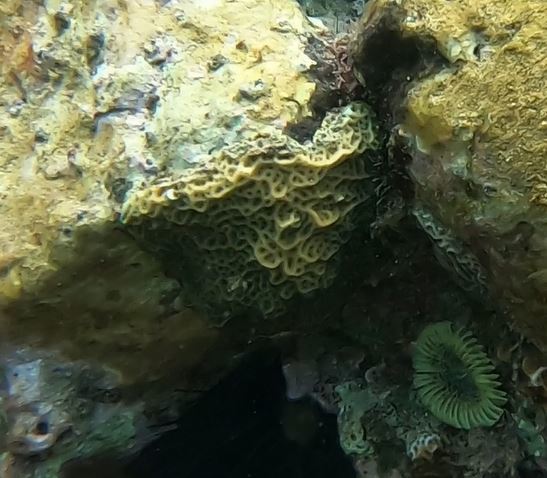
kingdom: Animalia
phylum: Cnidaria
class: Anthozoa
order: Scleractinia
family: Agariciidae
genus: Agaricia
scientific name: Agaricia humilis
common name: Lowrelief lettuce coral
